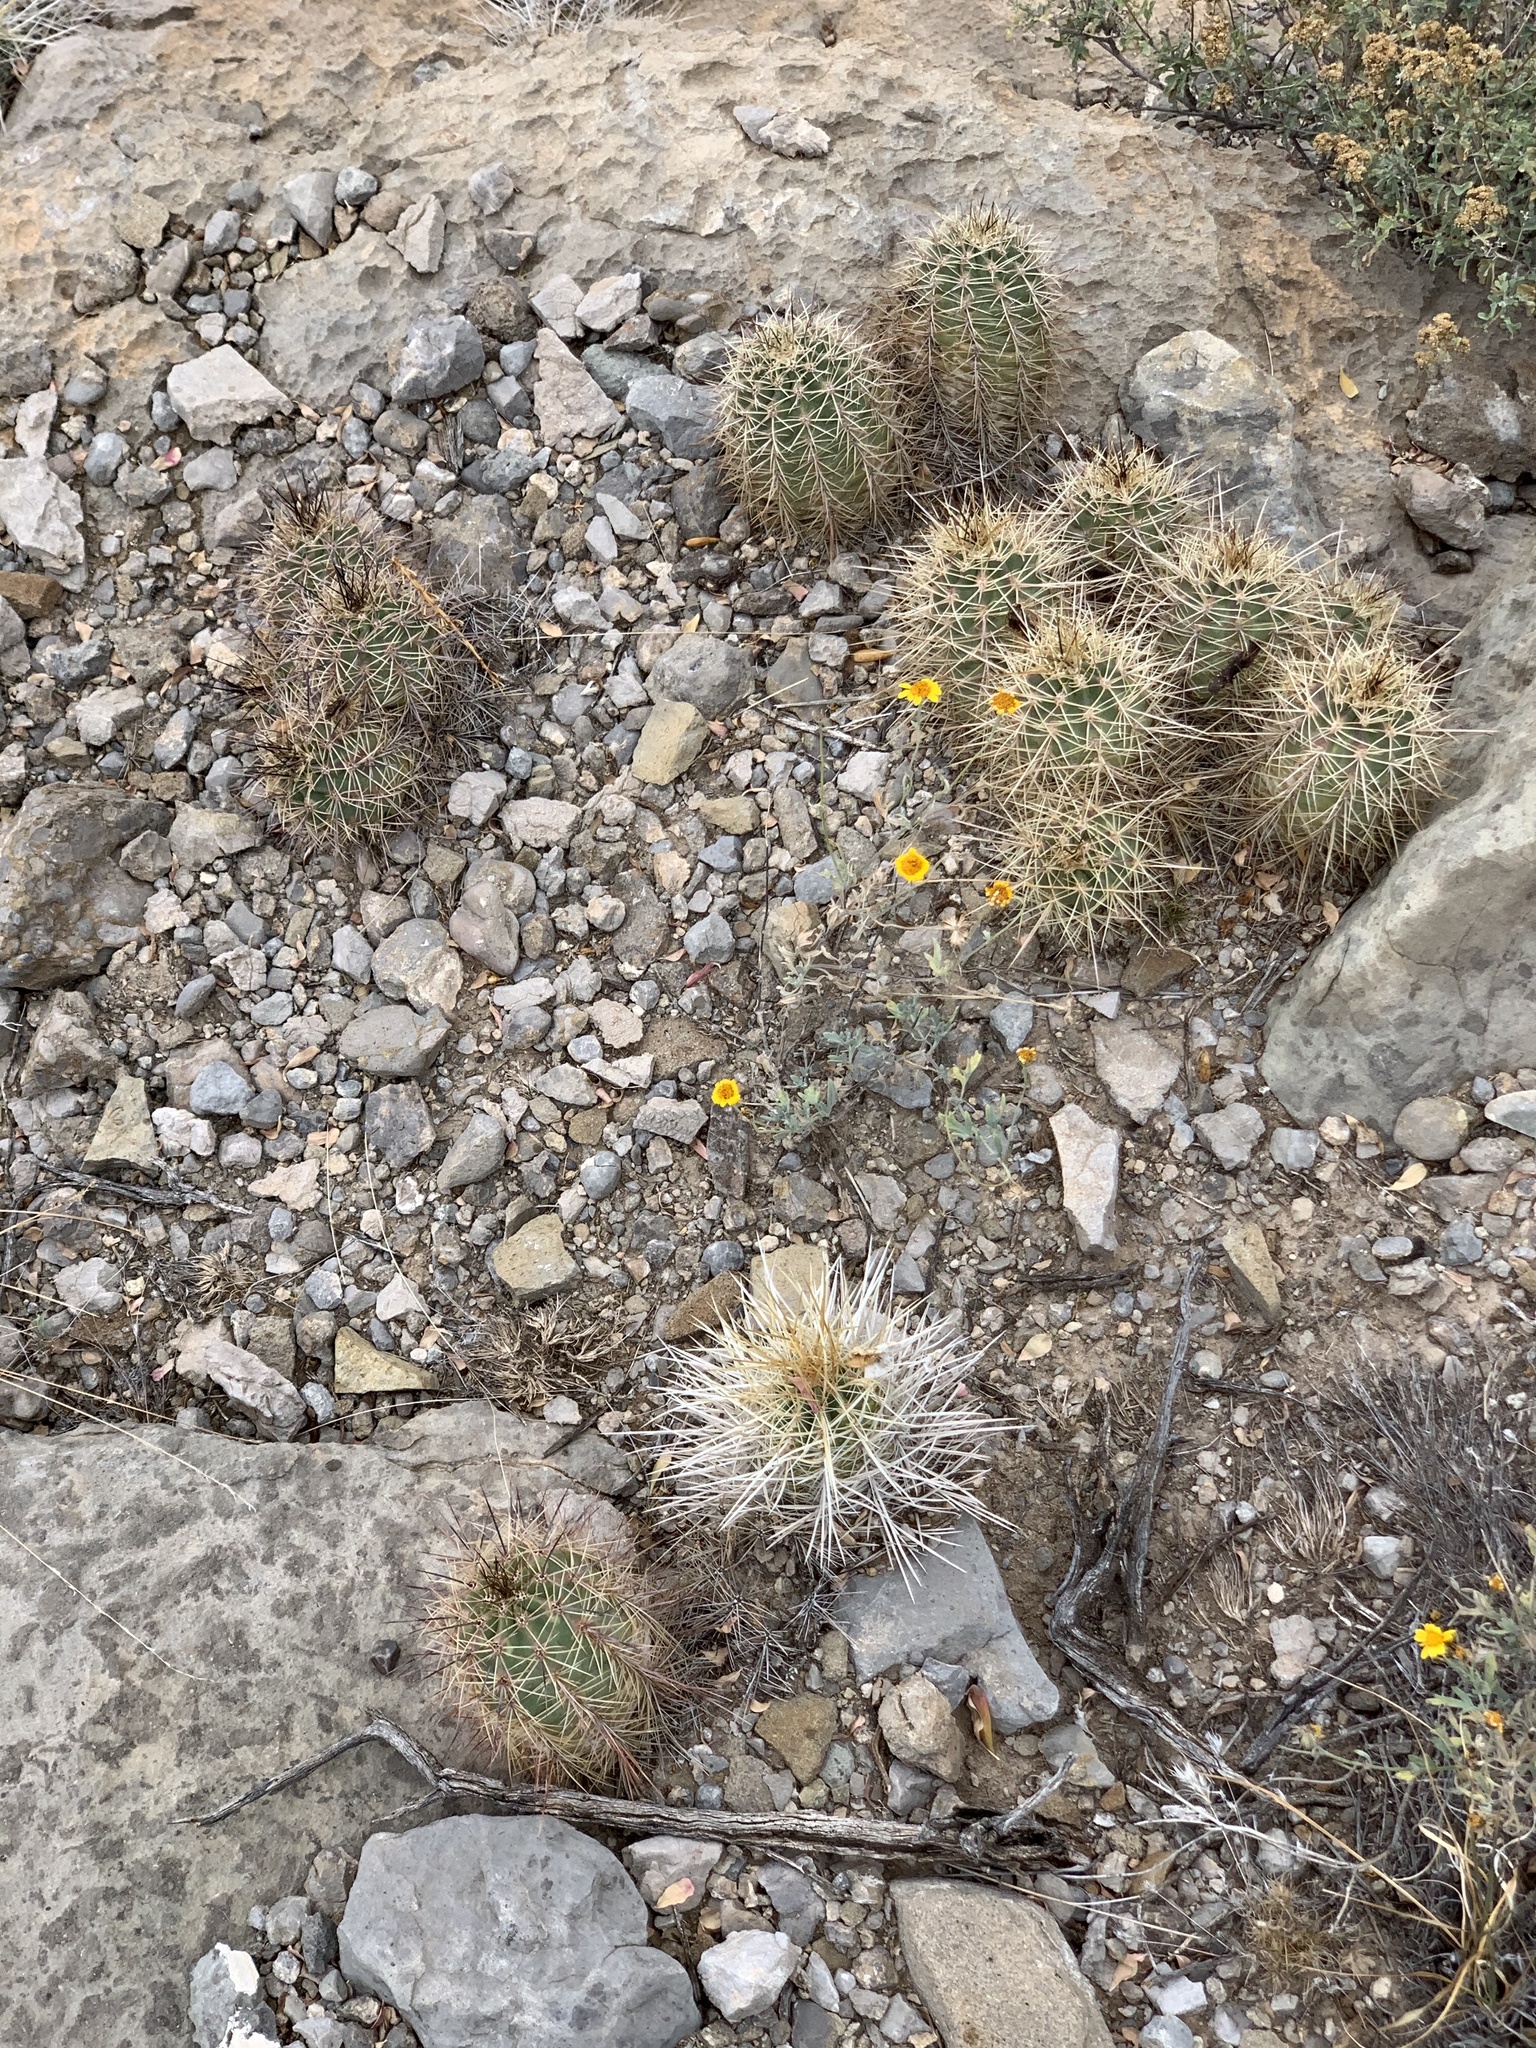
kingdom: Plantae
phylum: Tracheophyta
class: Magnoliopsida
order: Caryophyllales
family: Cactaceae
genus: Echinocereus
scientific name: Echinocereus coccineus
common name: Scarlet hedgehog cactus
